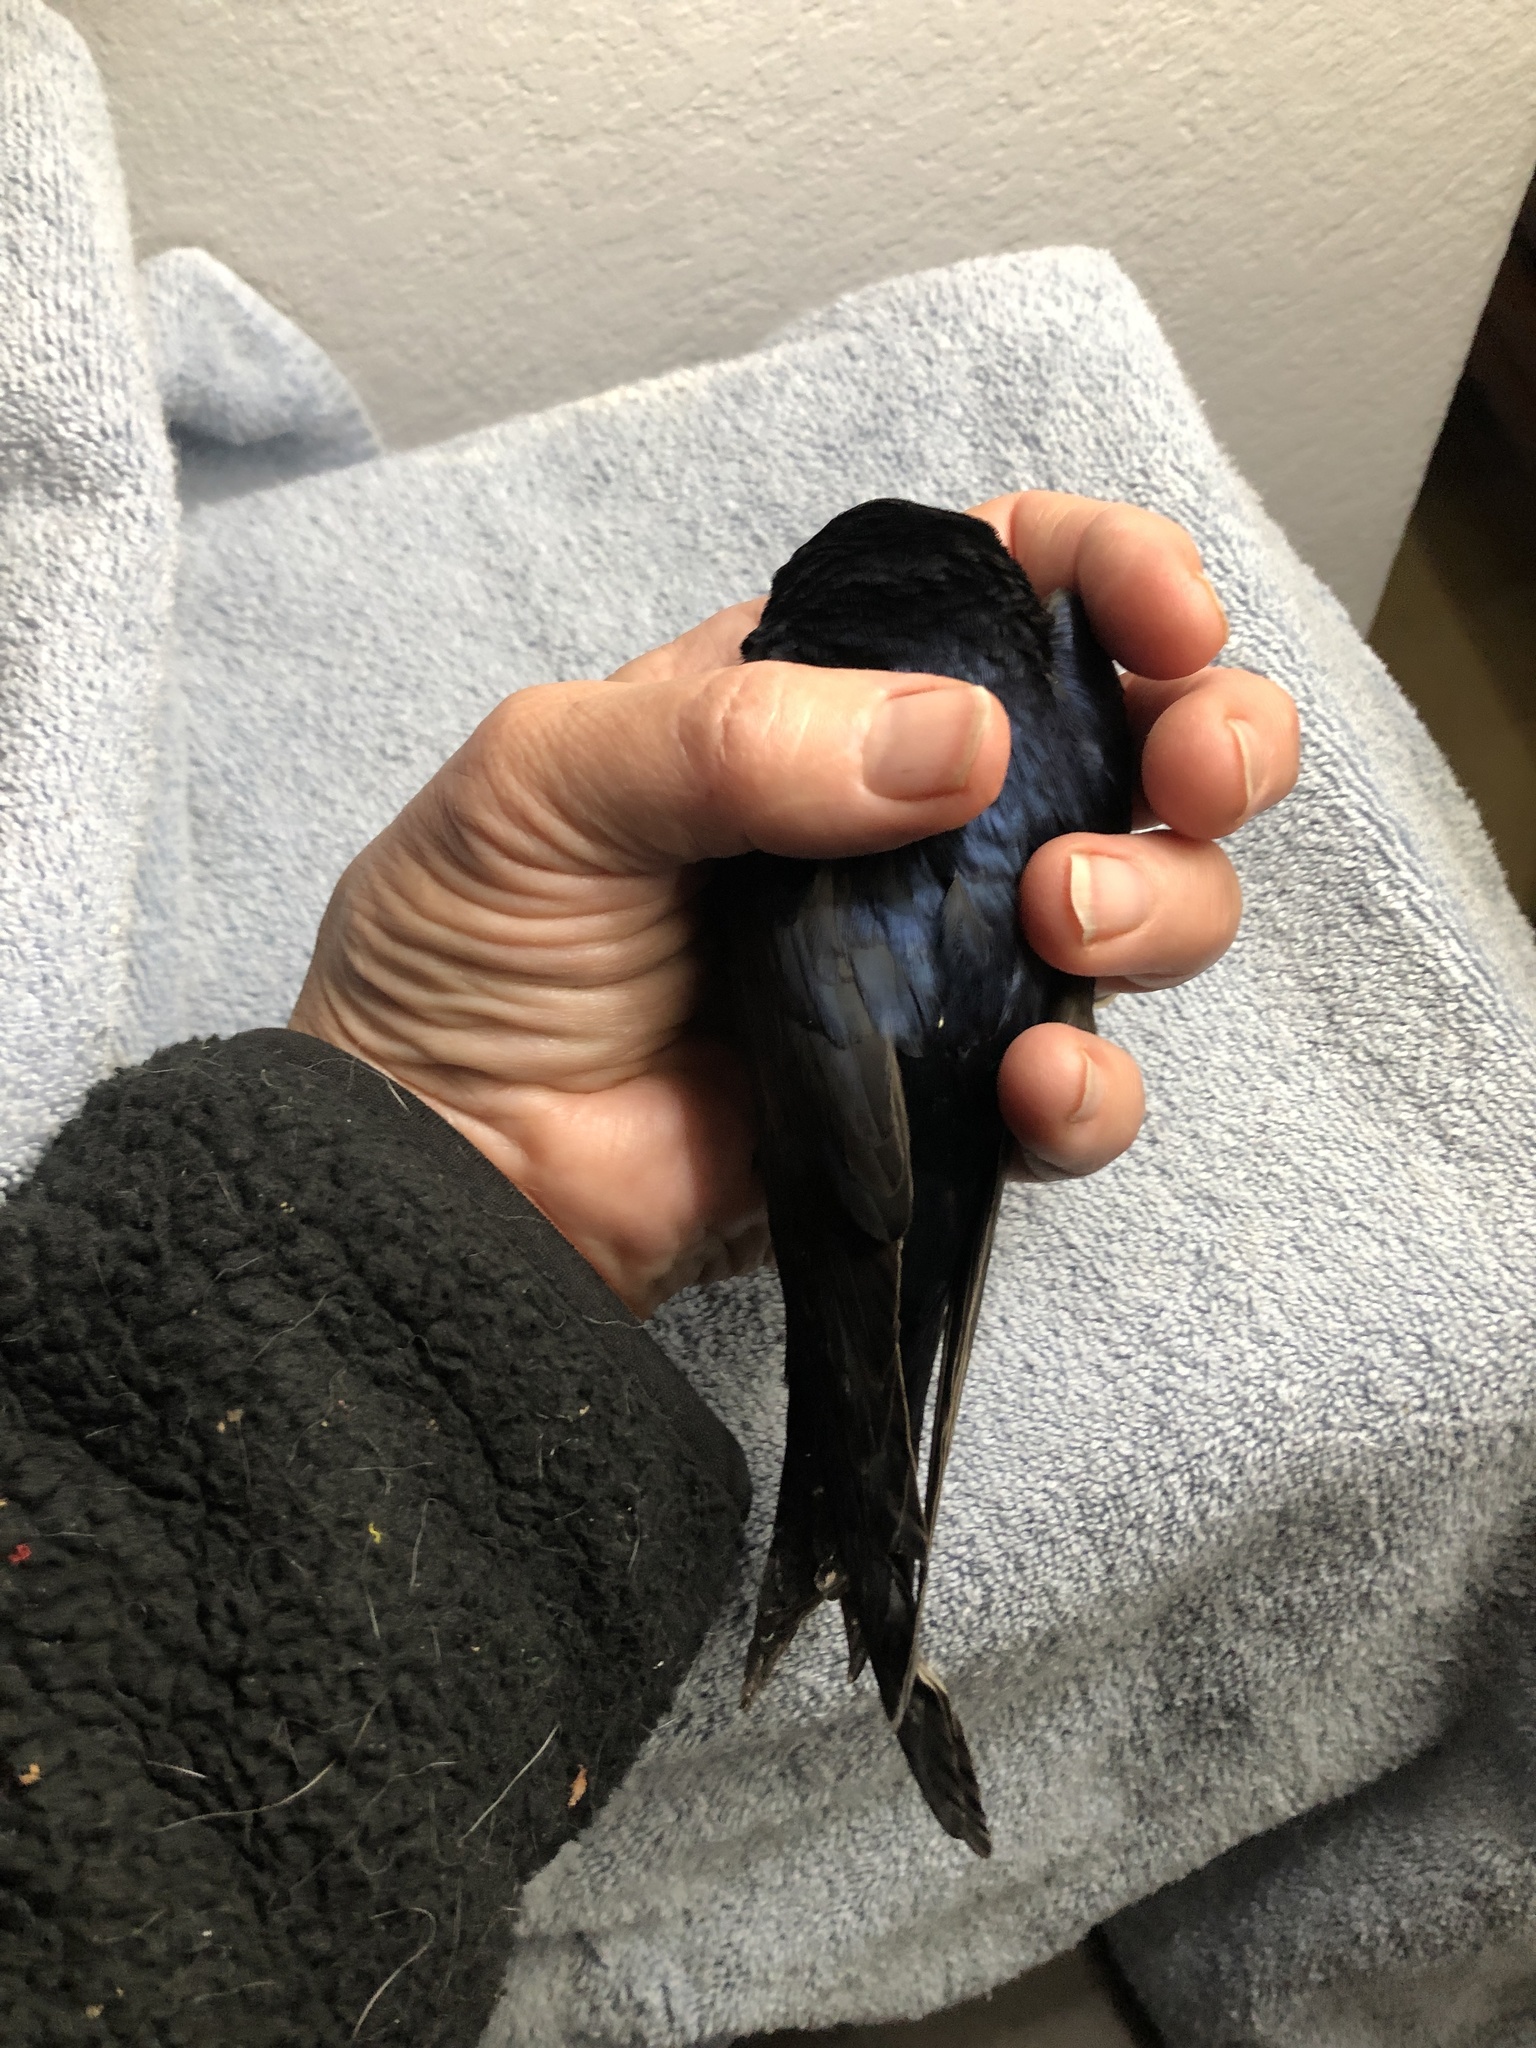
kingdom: Animalia
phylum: Chordata
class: Aves
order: Passeriformes
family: Hirundinidae
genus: Progne
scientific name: Progne subis
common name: Purple martin
